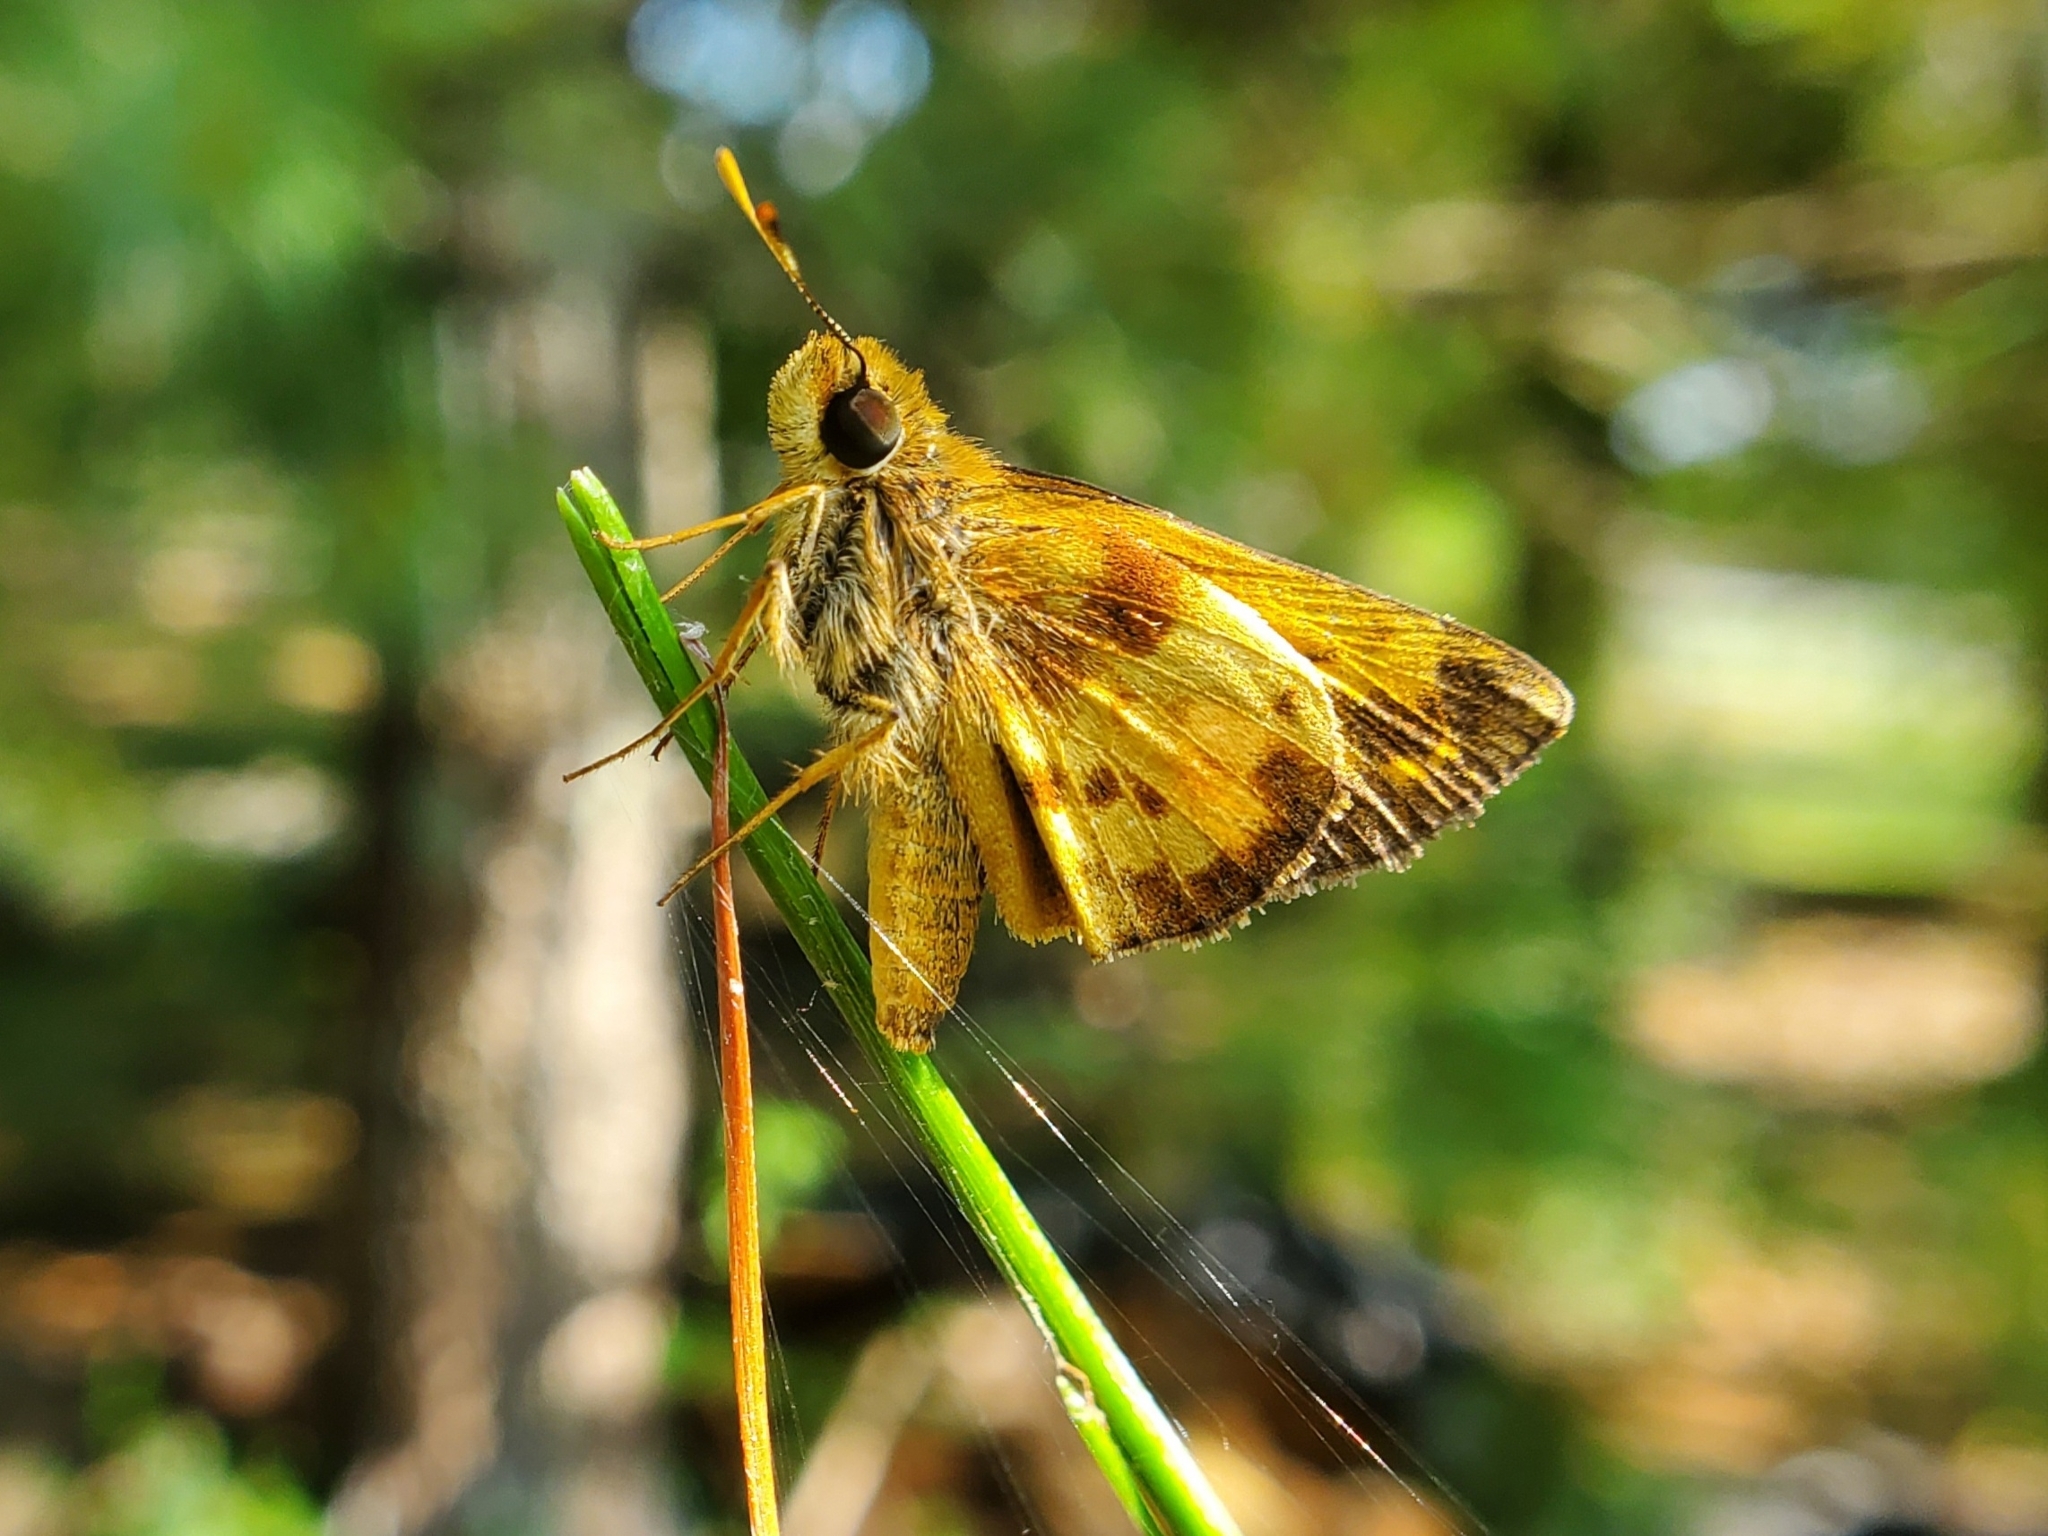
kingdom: Animalia
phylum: Arthropoda
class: Insecta
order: Lepidoptera
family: Hesperiidae
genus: Lon
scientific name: Lon zabulon
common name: Zabulon skipper
